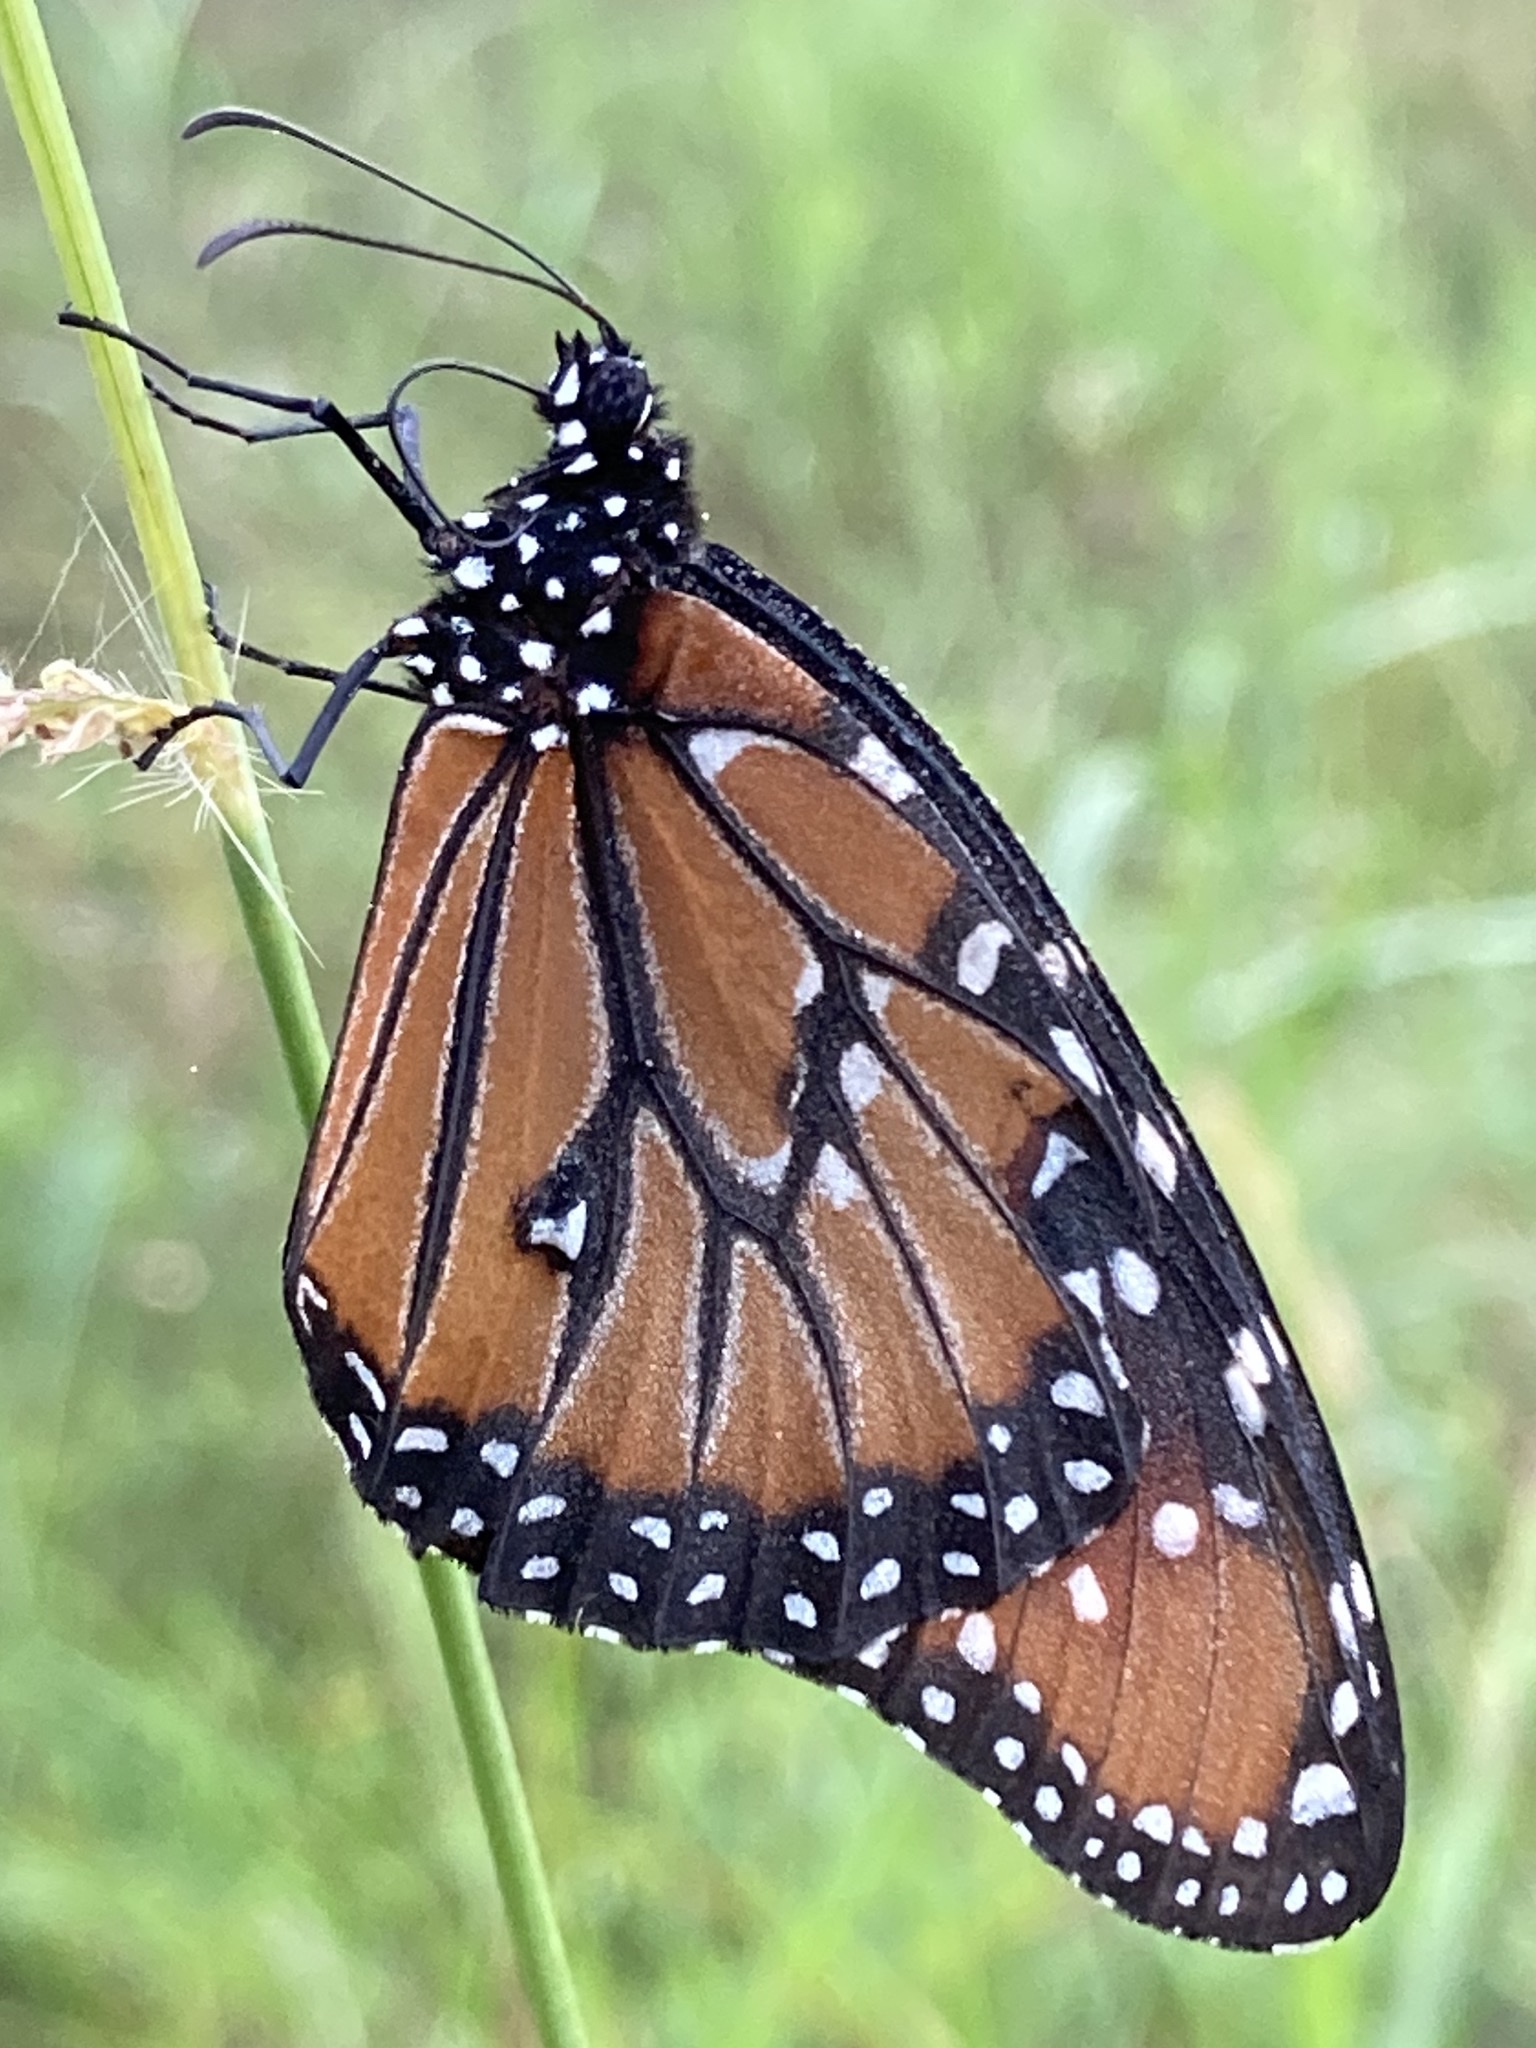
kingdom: Animalia
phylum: Arthropoda
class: Insecta
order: Lepidoptera
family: Nymphalidae
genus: Danaus
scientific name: Danaus gilippus
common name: Queen
